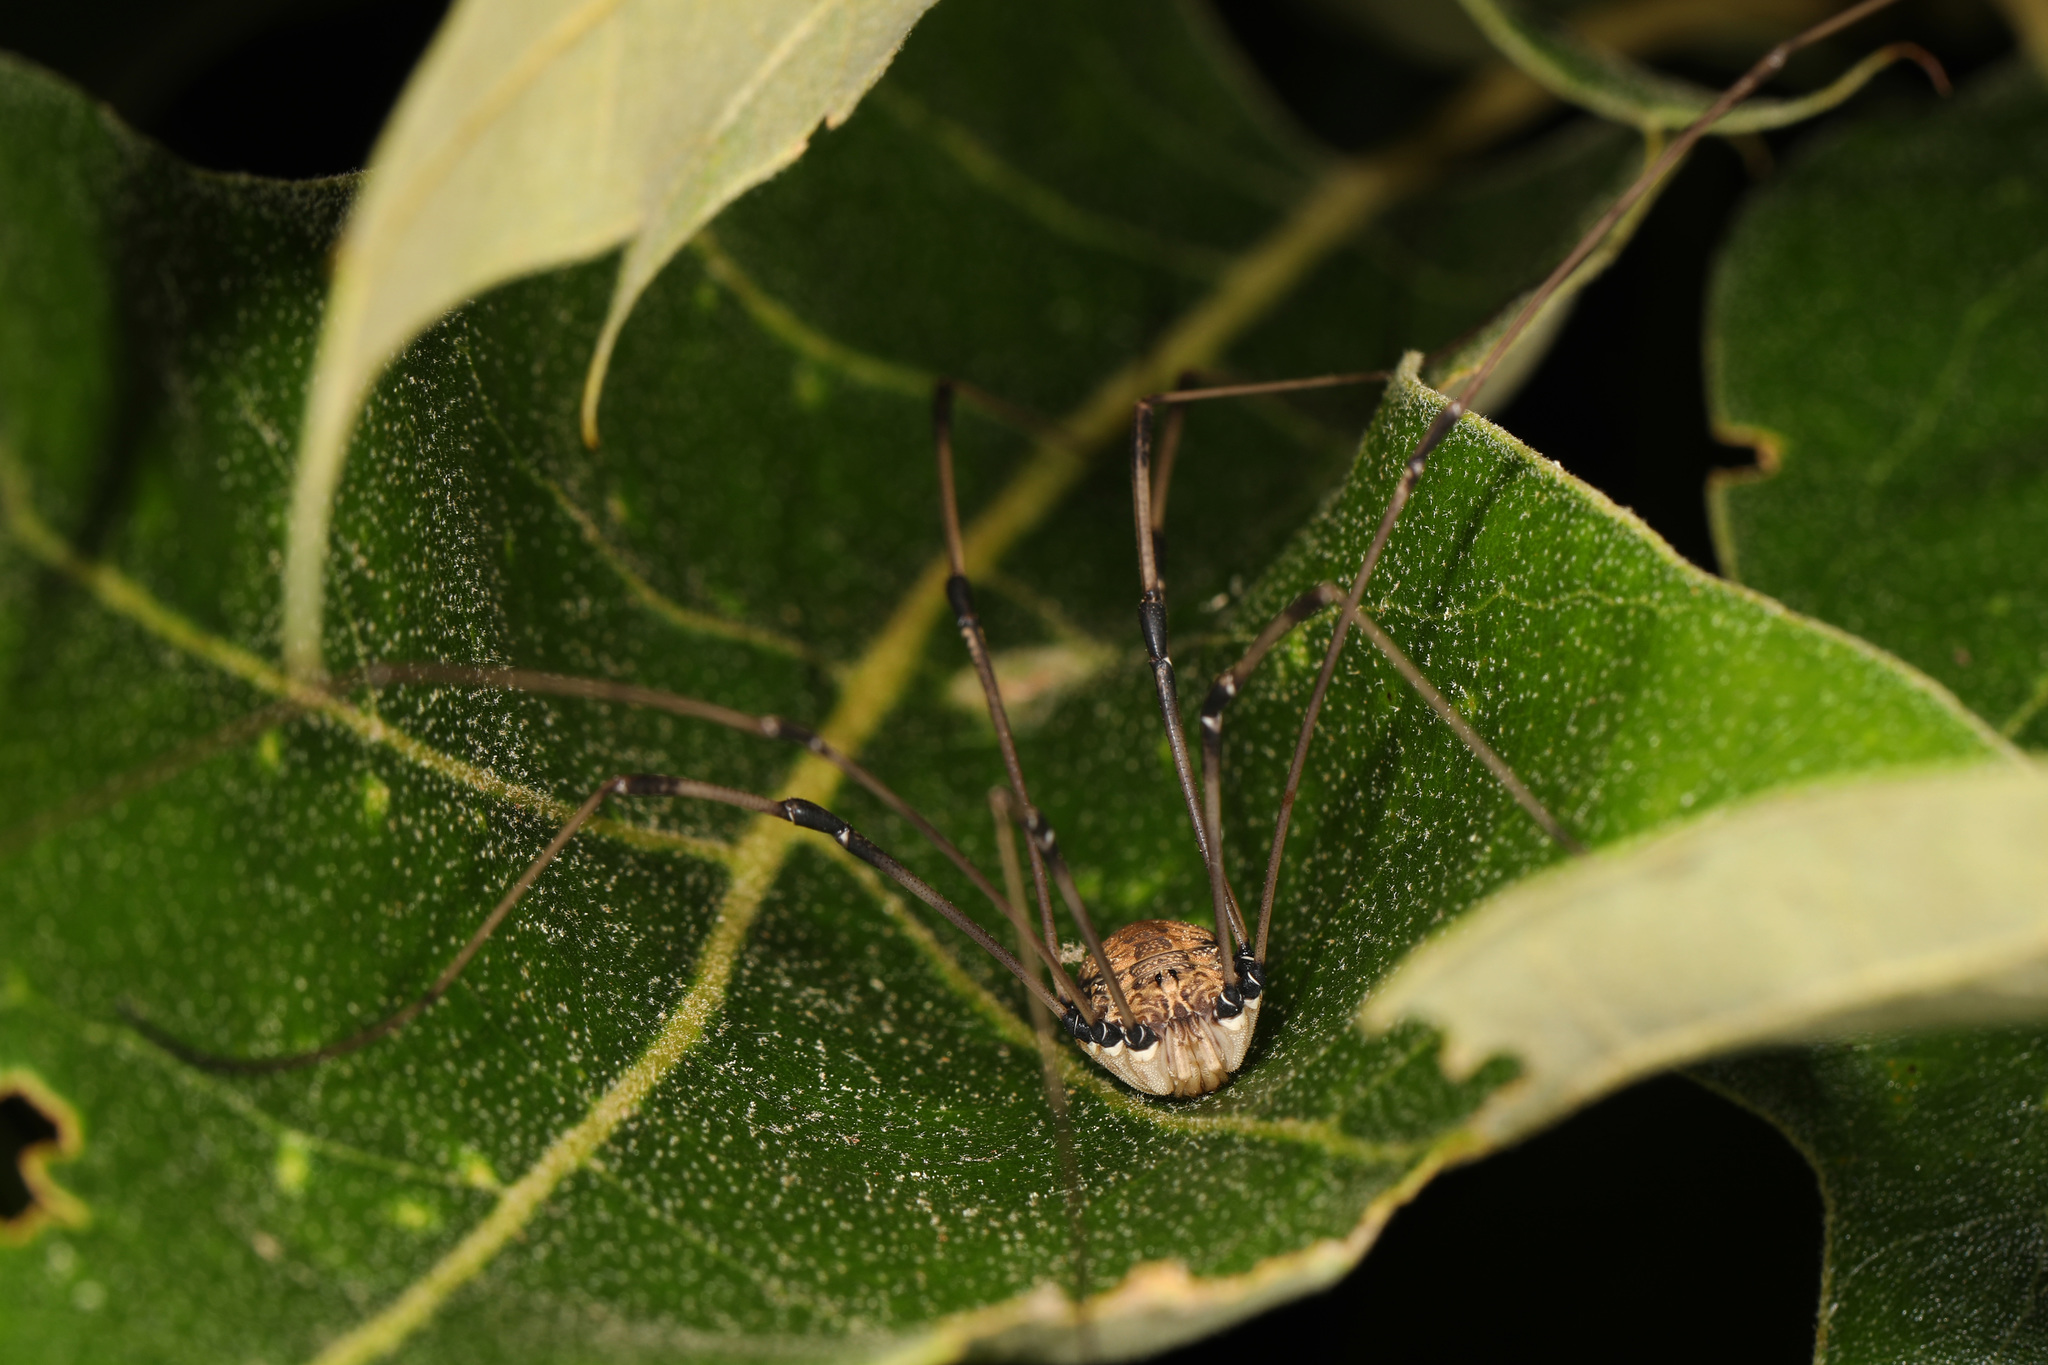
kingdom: Animalia
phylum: Arthropoda
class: Arachnida
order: Opiliones
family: Sclerosomatidae
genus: Leiobunum
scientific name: Leiobunum verrucosum
